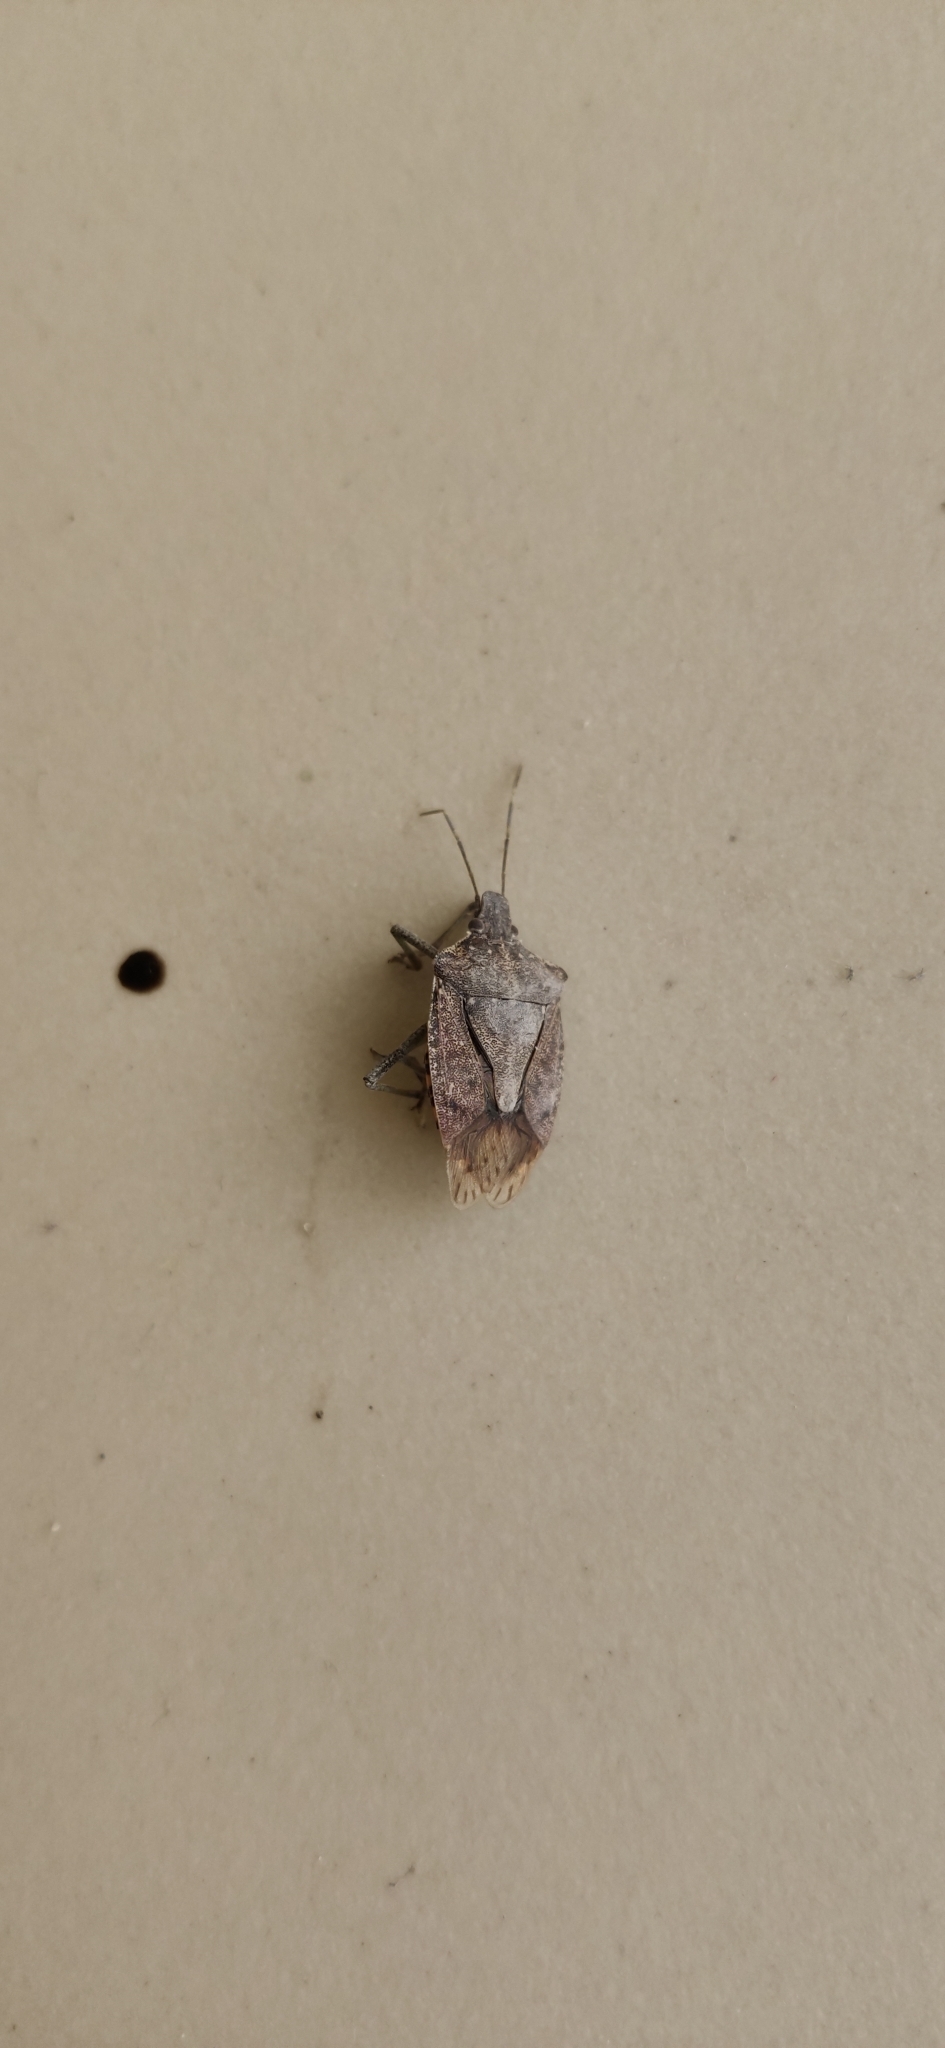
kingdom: Animalia
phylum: Arthropoda
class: Insecta
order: Hemiptera
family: Pentatomidae
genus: Halyomorpha
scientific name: Halyomorpha halys
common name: Brown marmorated stink bug
